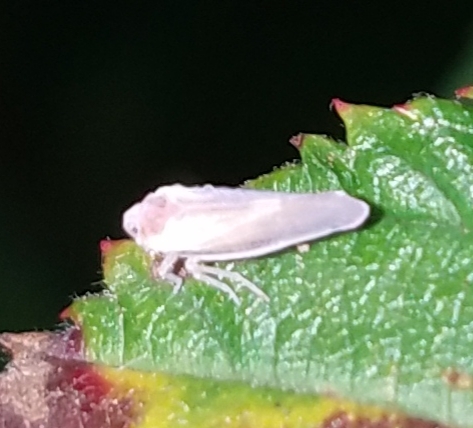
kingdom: Animalia
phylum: Arthropoda
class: Insecta
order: Hemiptera
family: Derbidae
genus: Omolicna
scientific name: Omolicna uhleri
